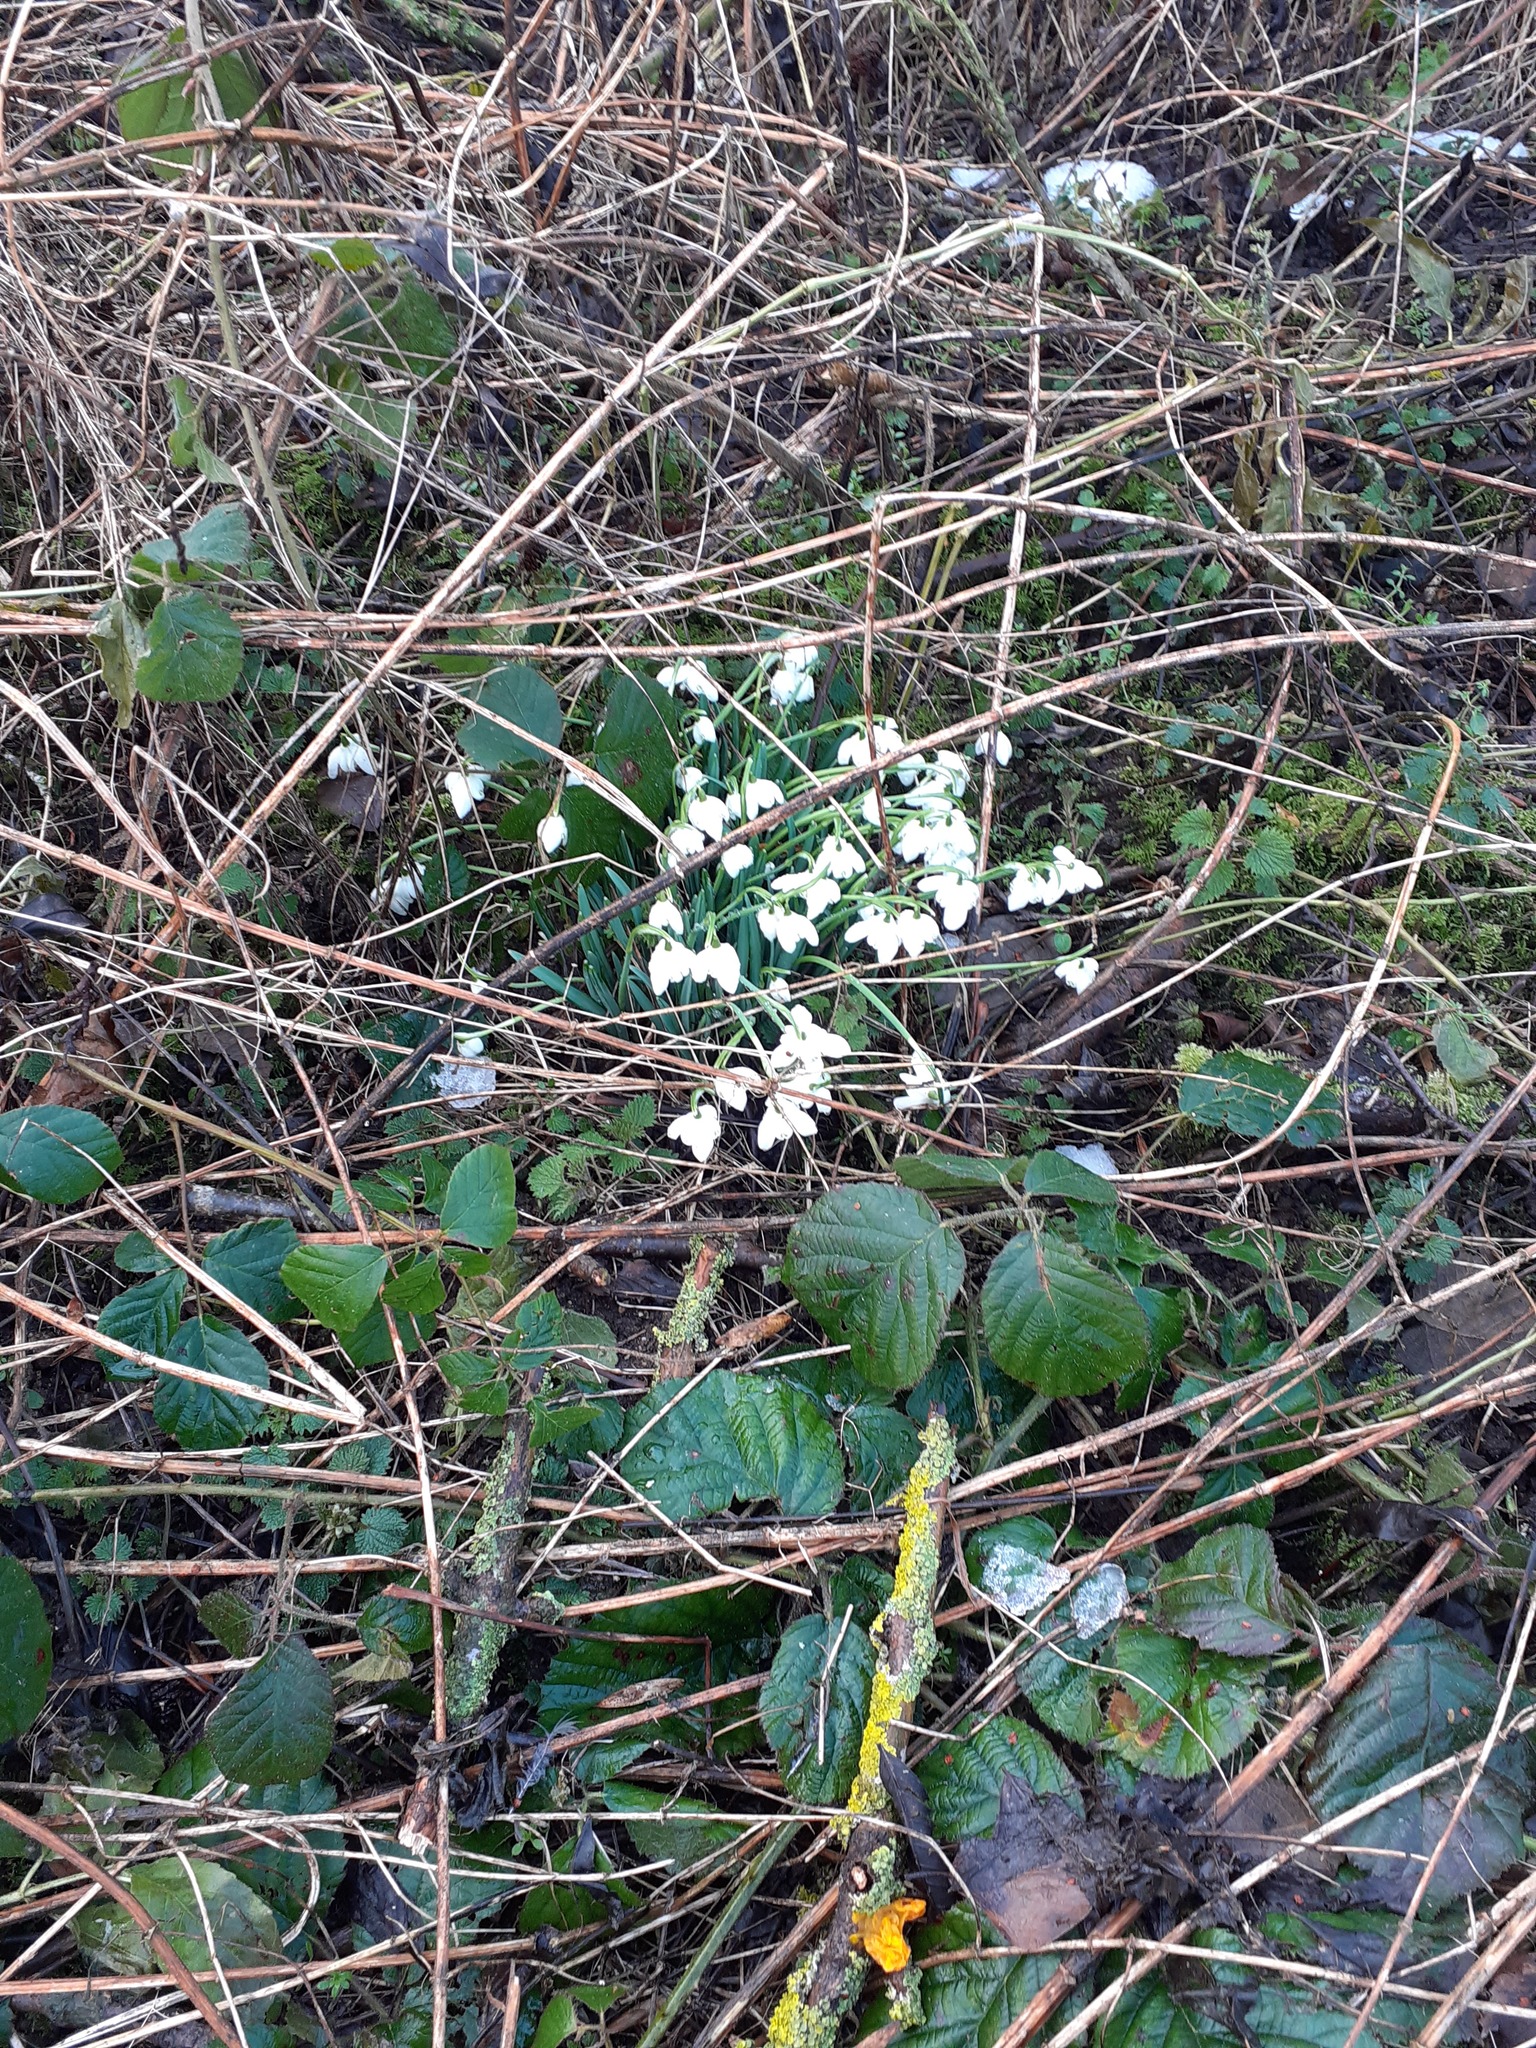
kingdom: Plantae
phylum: Tracheophyta
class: Liliopsida
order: Asparagales
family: Amaryllidaceae
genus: Galanthus
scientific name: Galanthus nivalis
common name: Snowdrop
